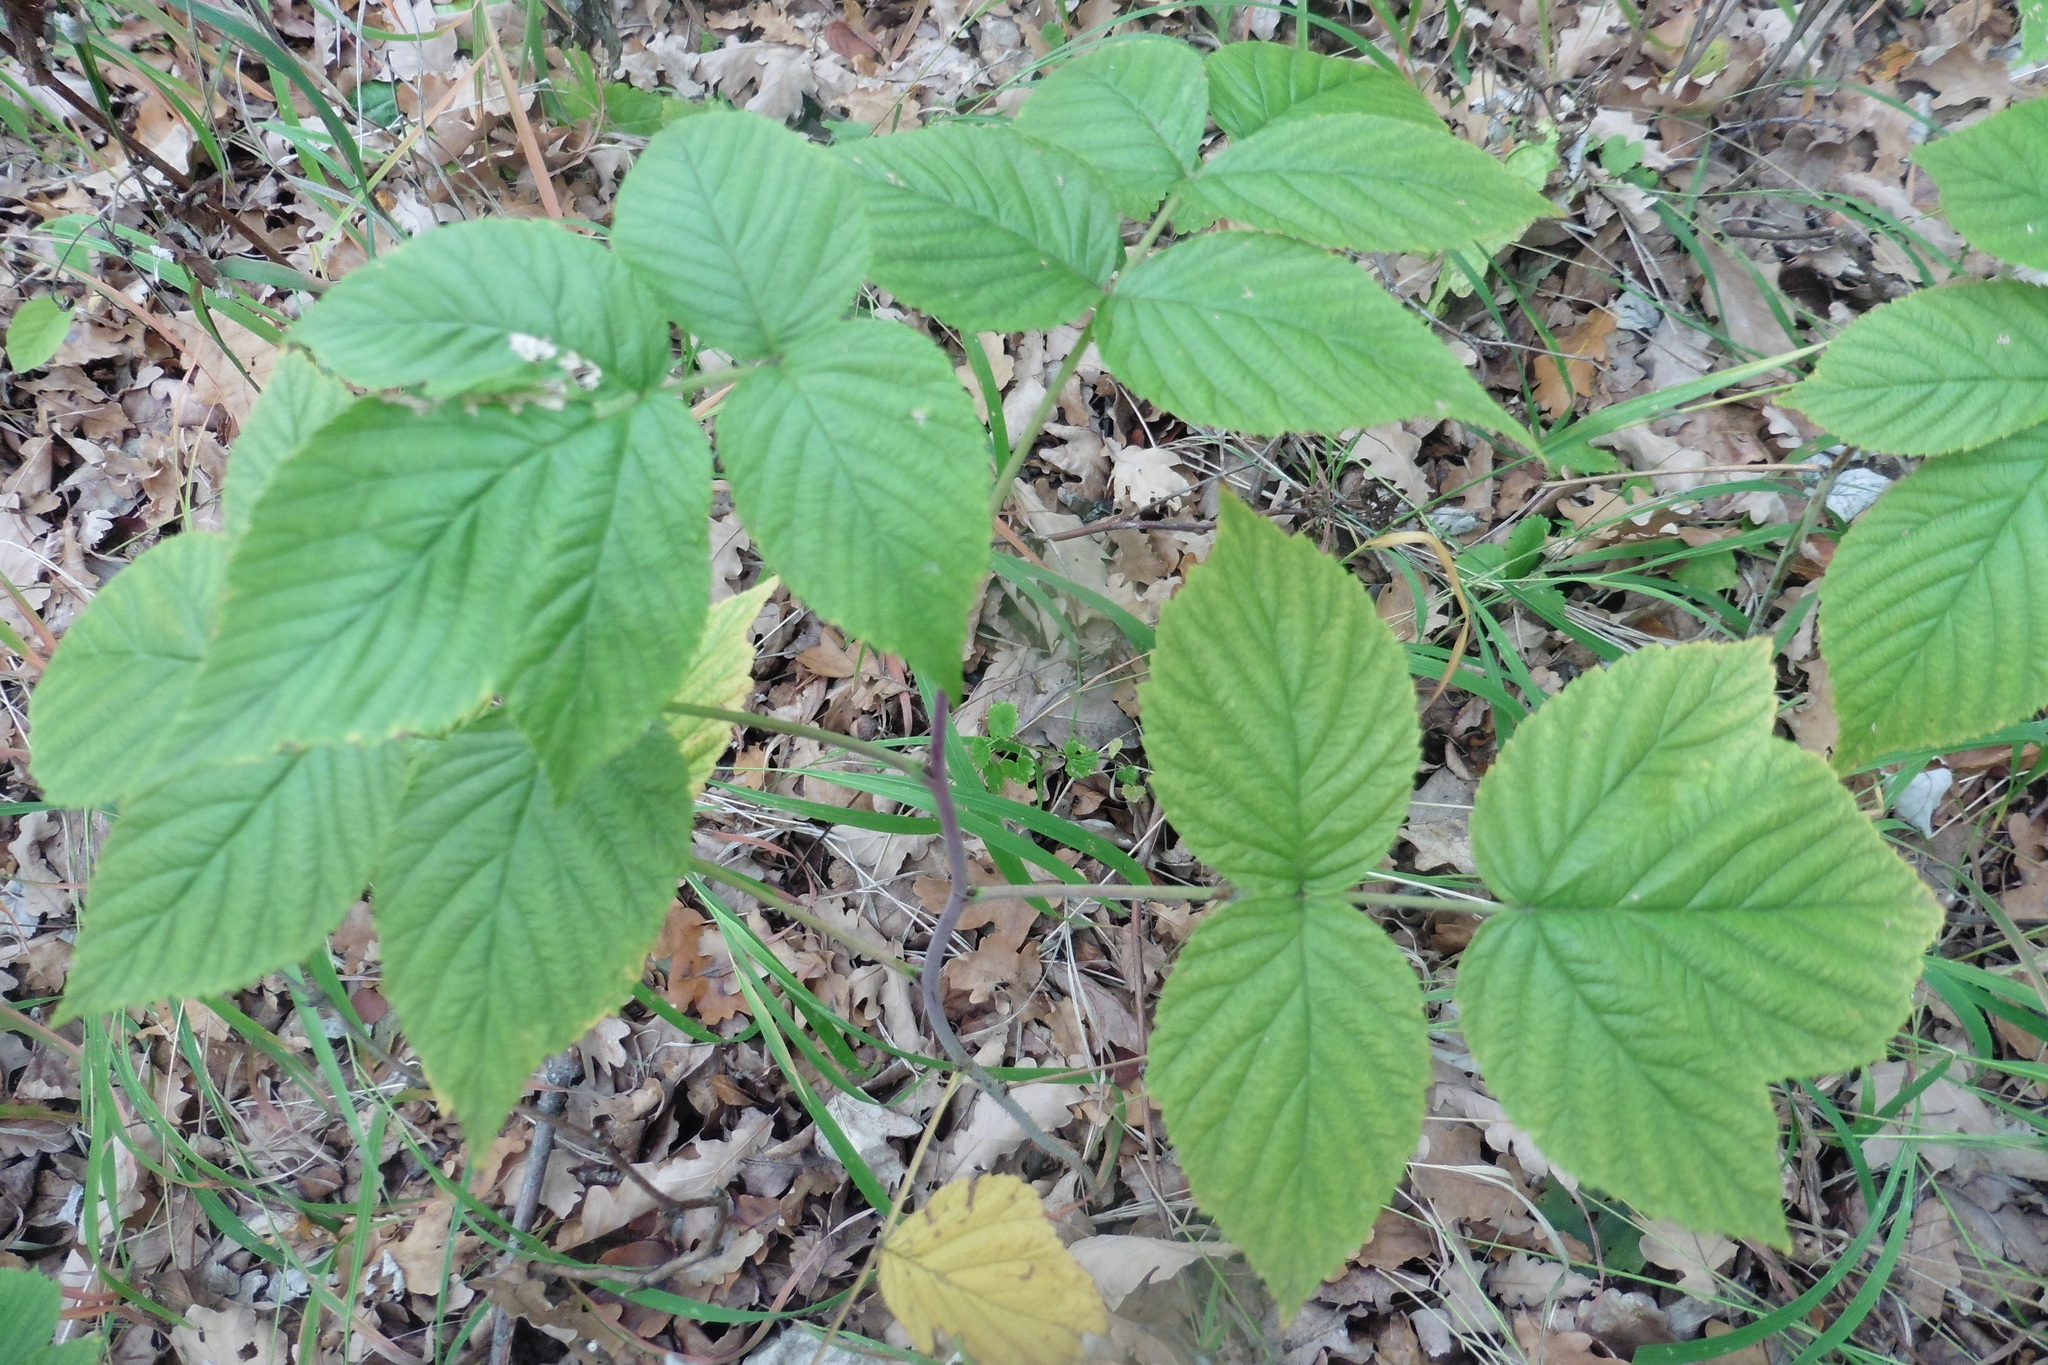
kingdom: Plantae
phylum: Tracheophyta
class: Magnoliopsida
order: Rosales
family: Rosaceae
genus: Rubus
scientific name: Rubus idaeus
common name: Raspberry
